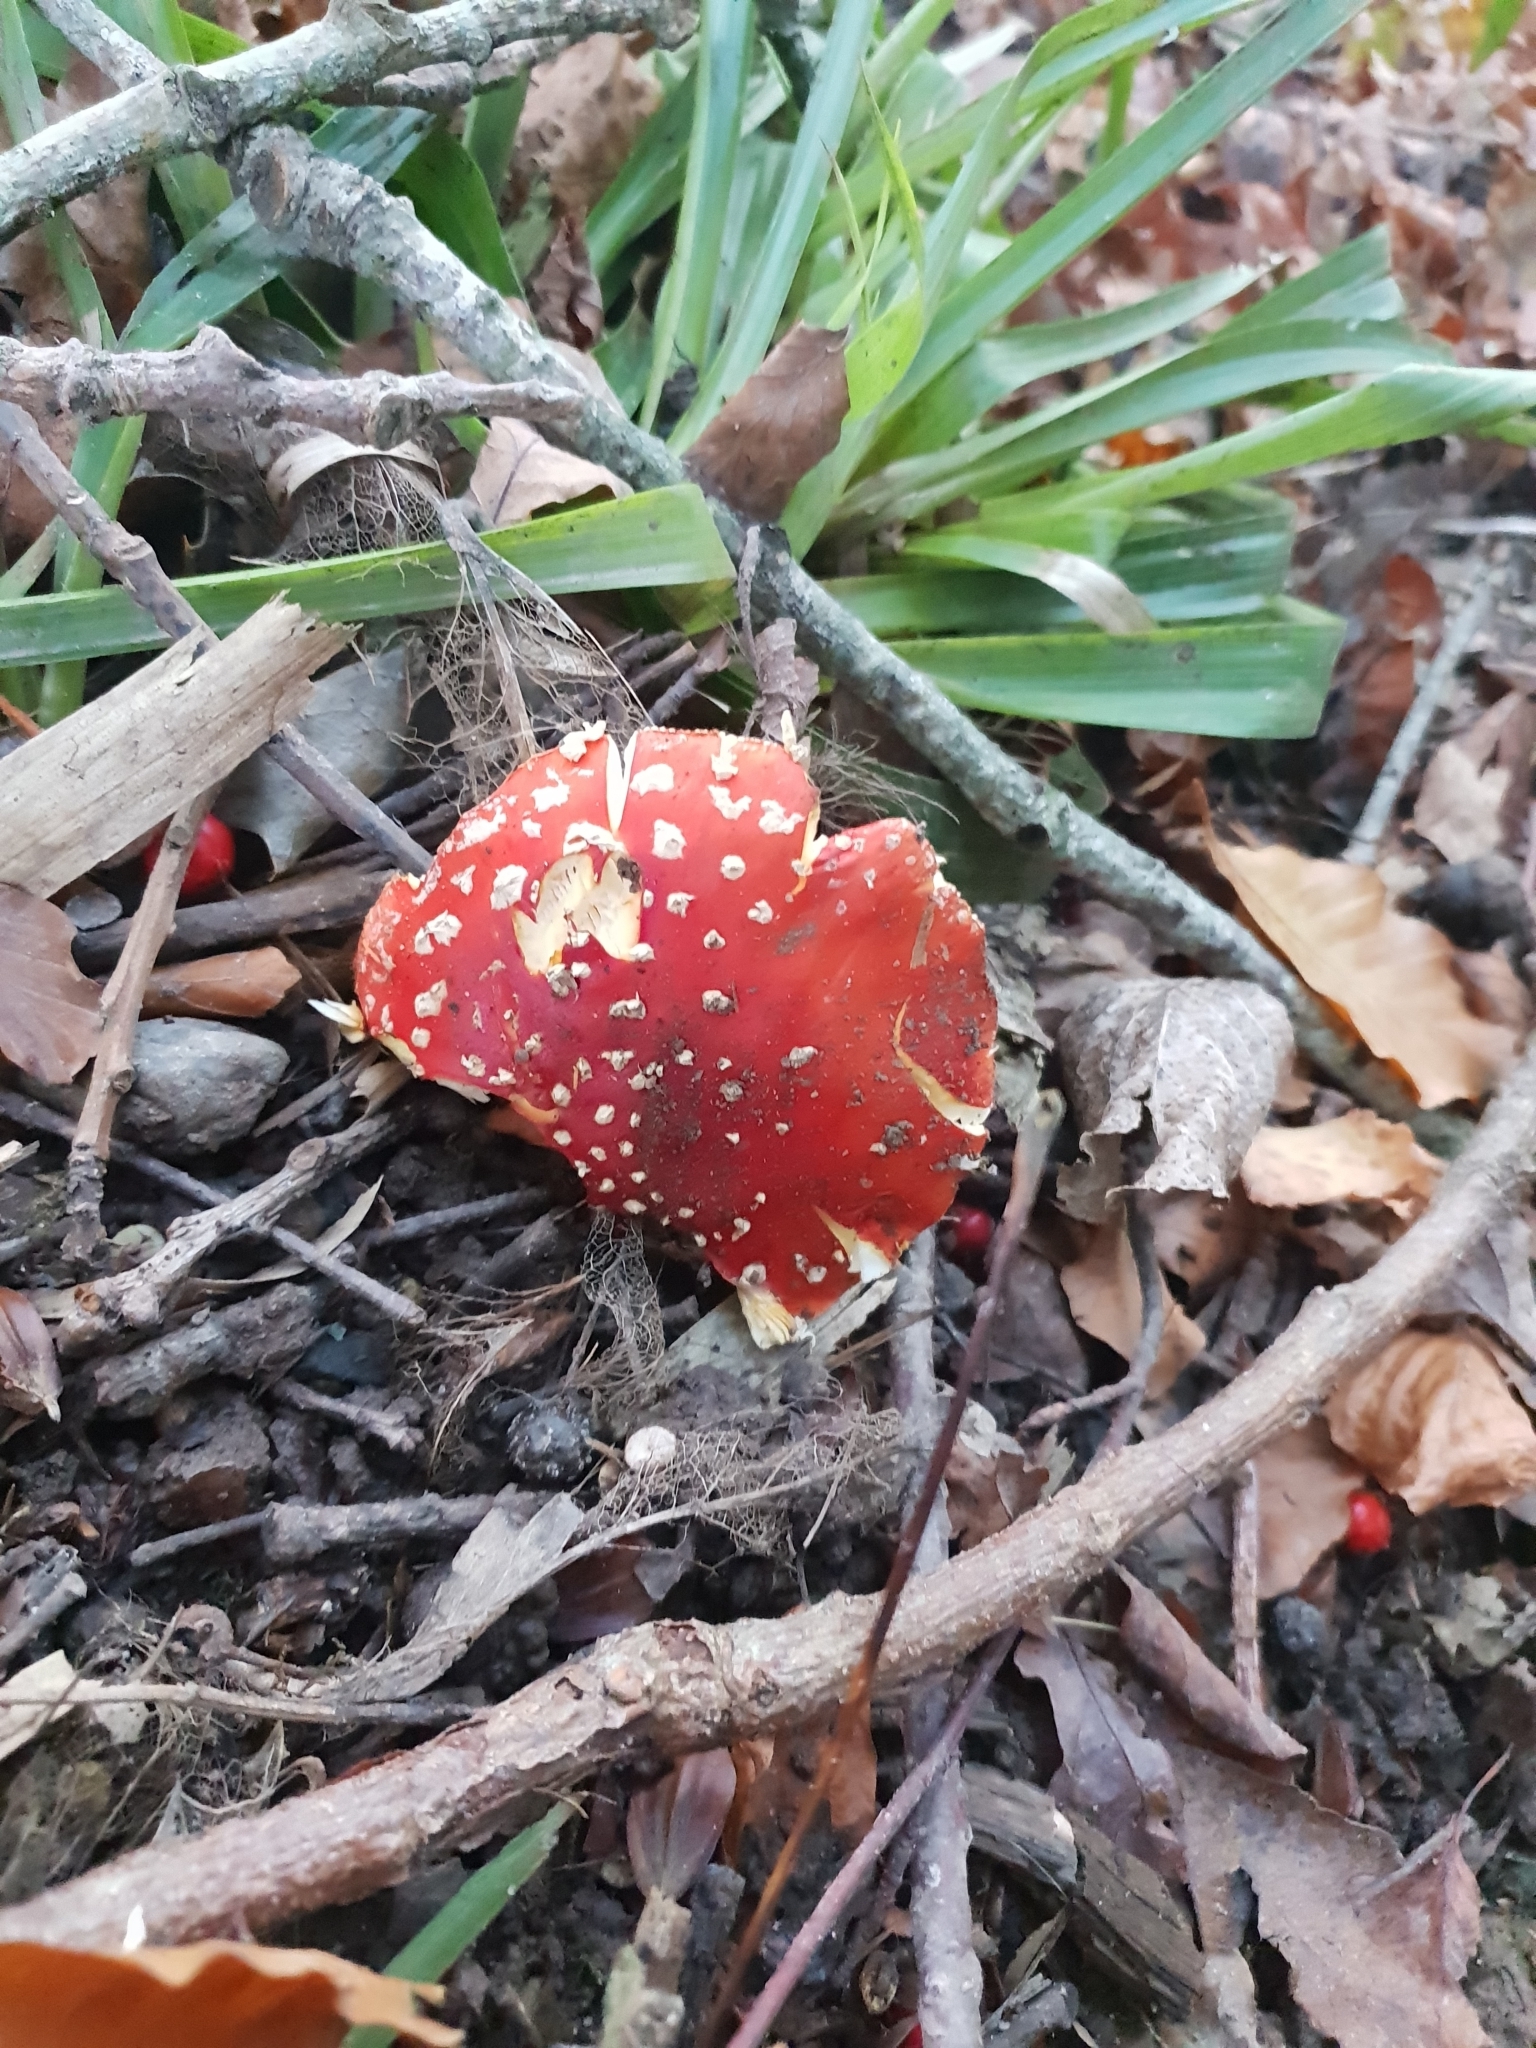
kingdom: Fungi
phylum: Basidiomycota
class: Agaricomycetes
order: Agaricales
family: Amanitaceae
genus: Amanita
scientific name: Amanita muscaria
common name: Fly agaric
